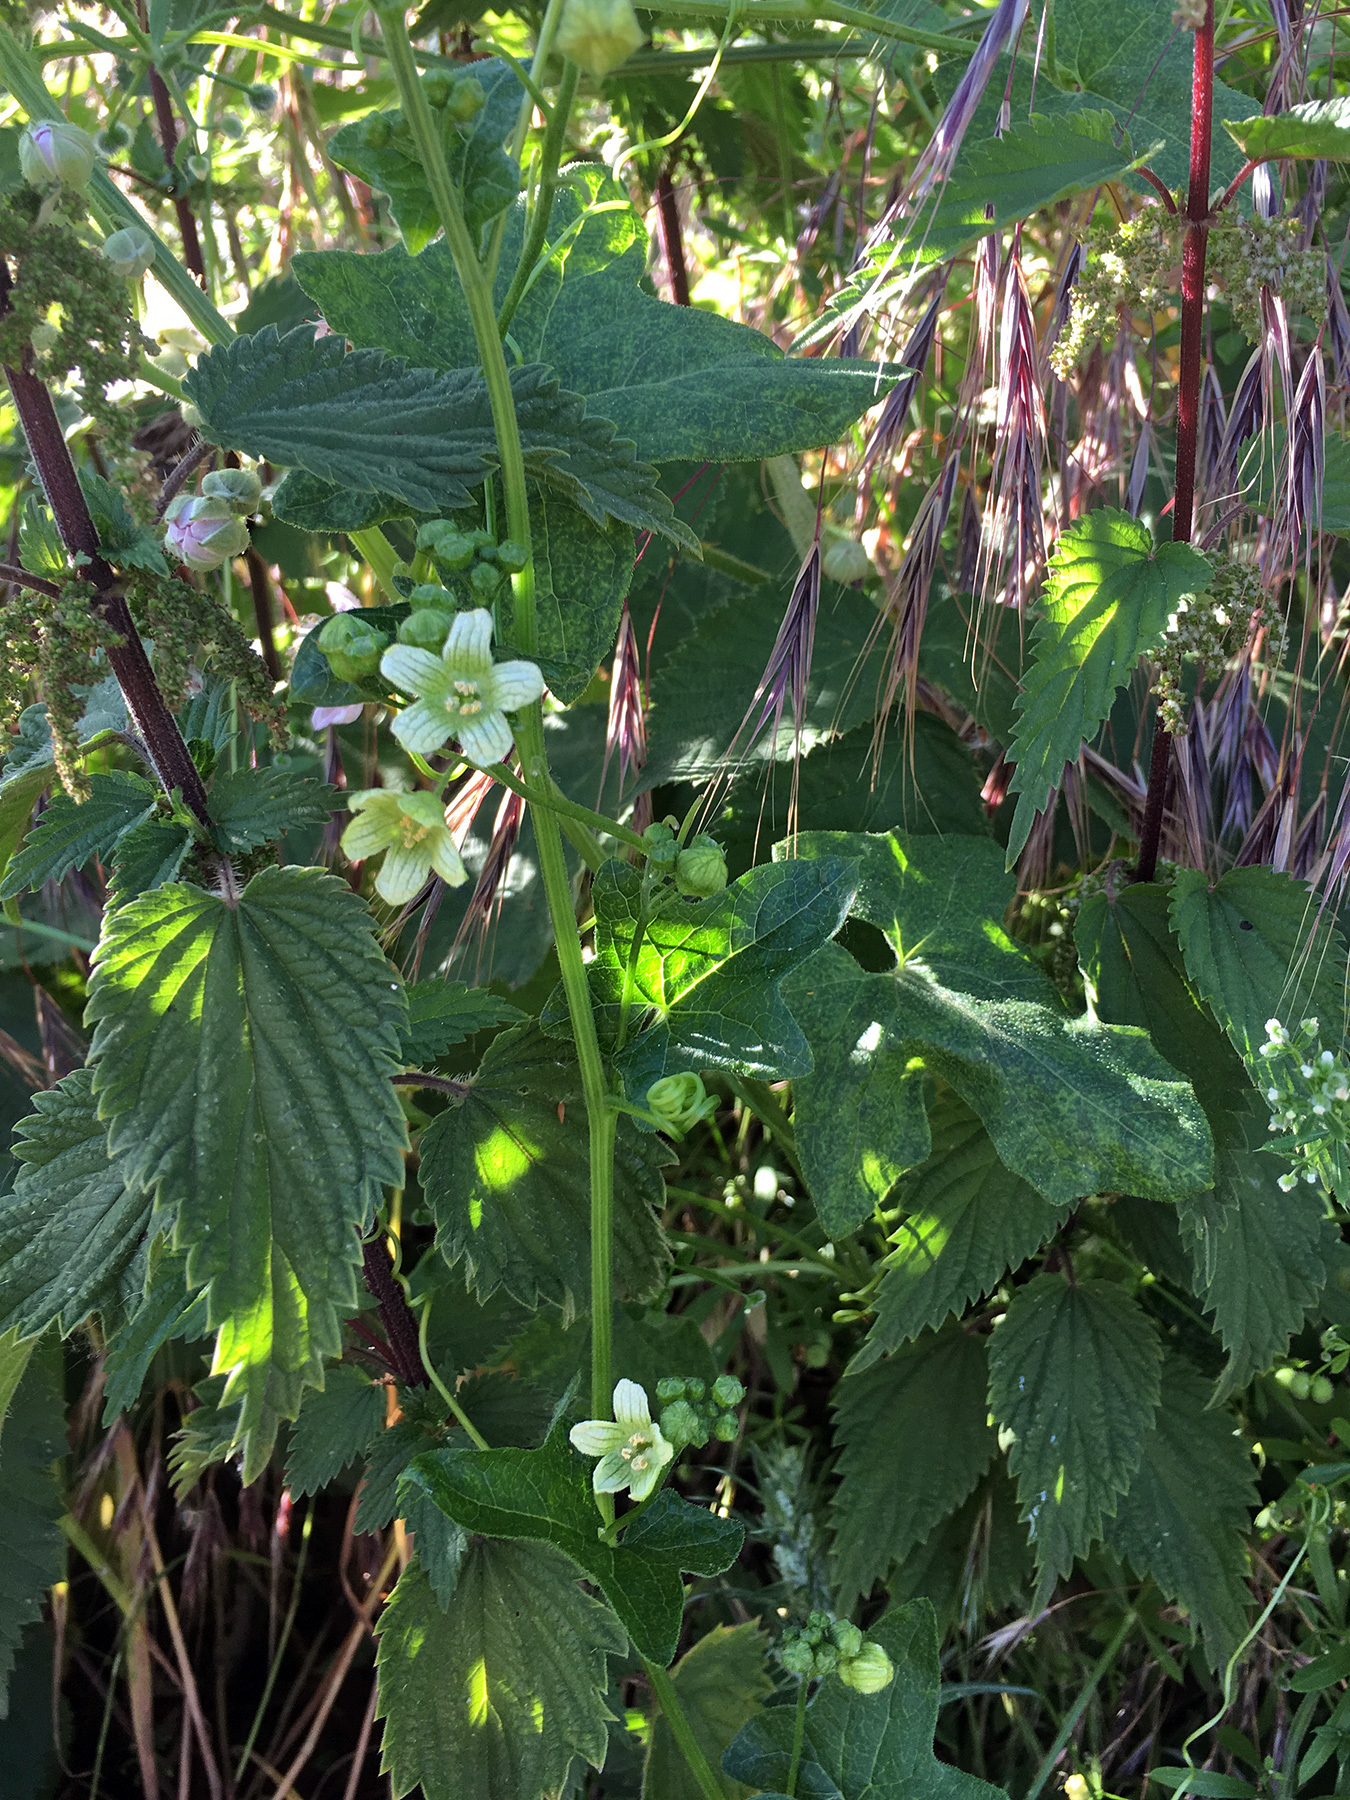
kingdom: Plantae
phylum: Tracheophyta
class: Magnoliopsida
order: Cucurbitales
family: Cucurbitaceae
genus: Bryonia
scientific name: Bryonia cretica
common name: Cretan bryony
